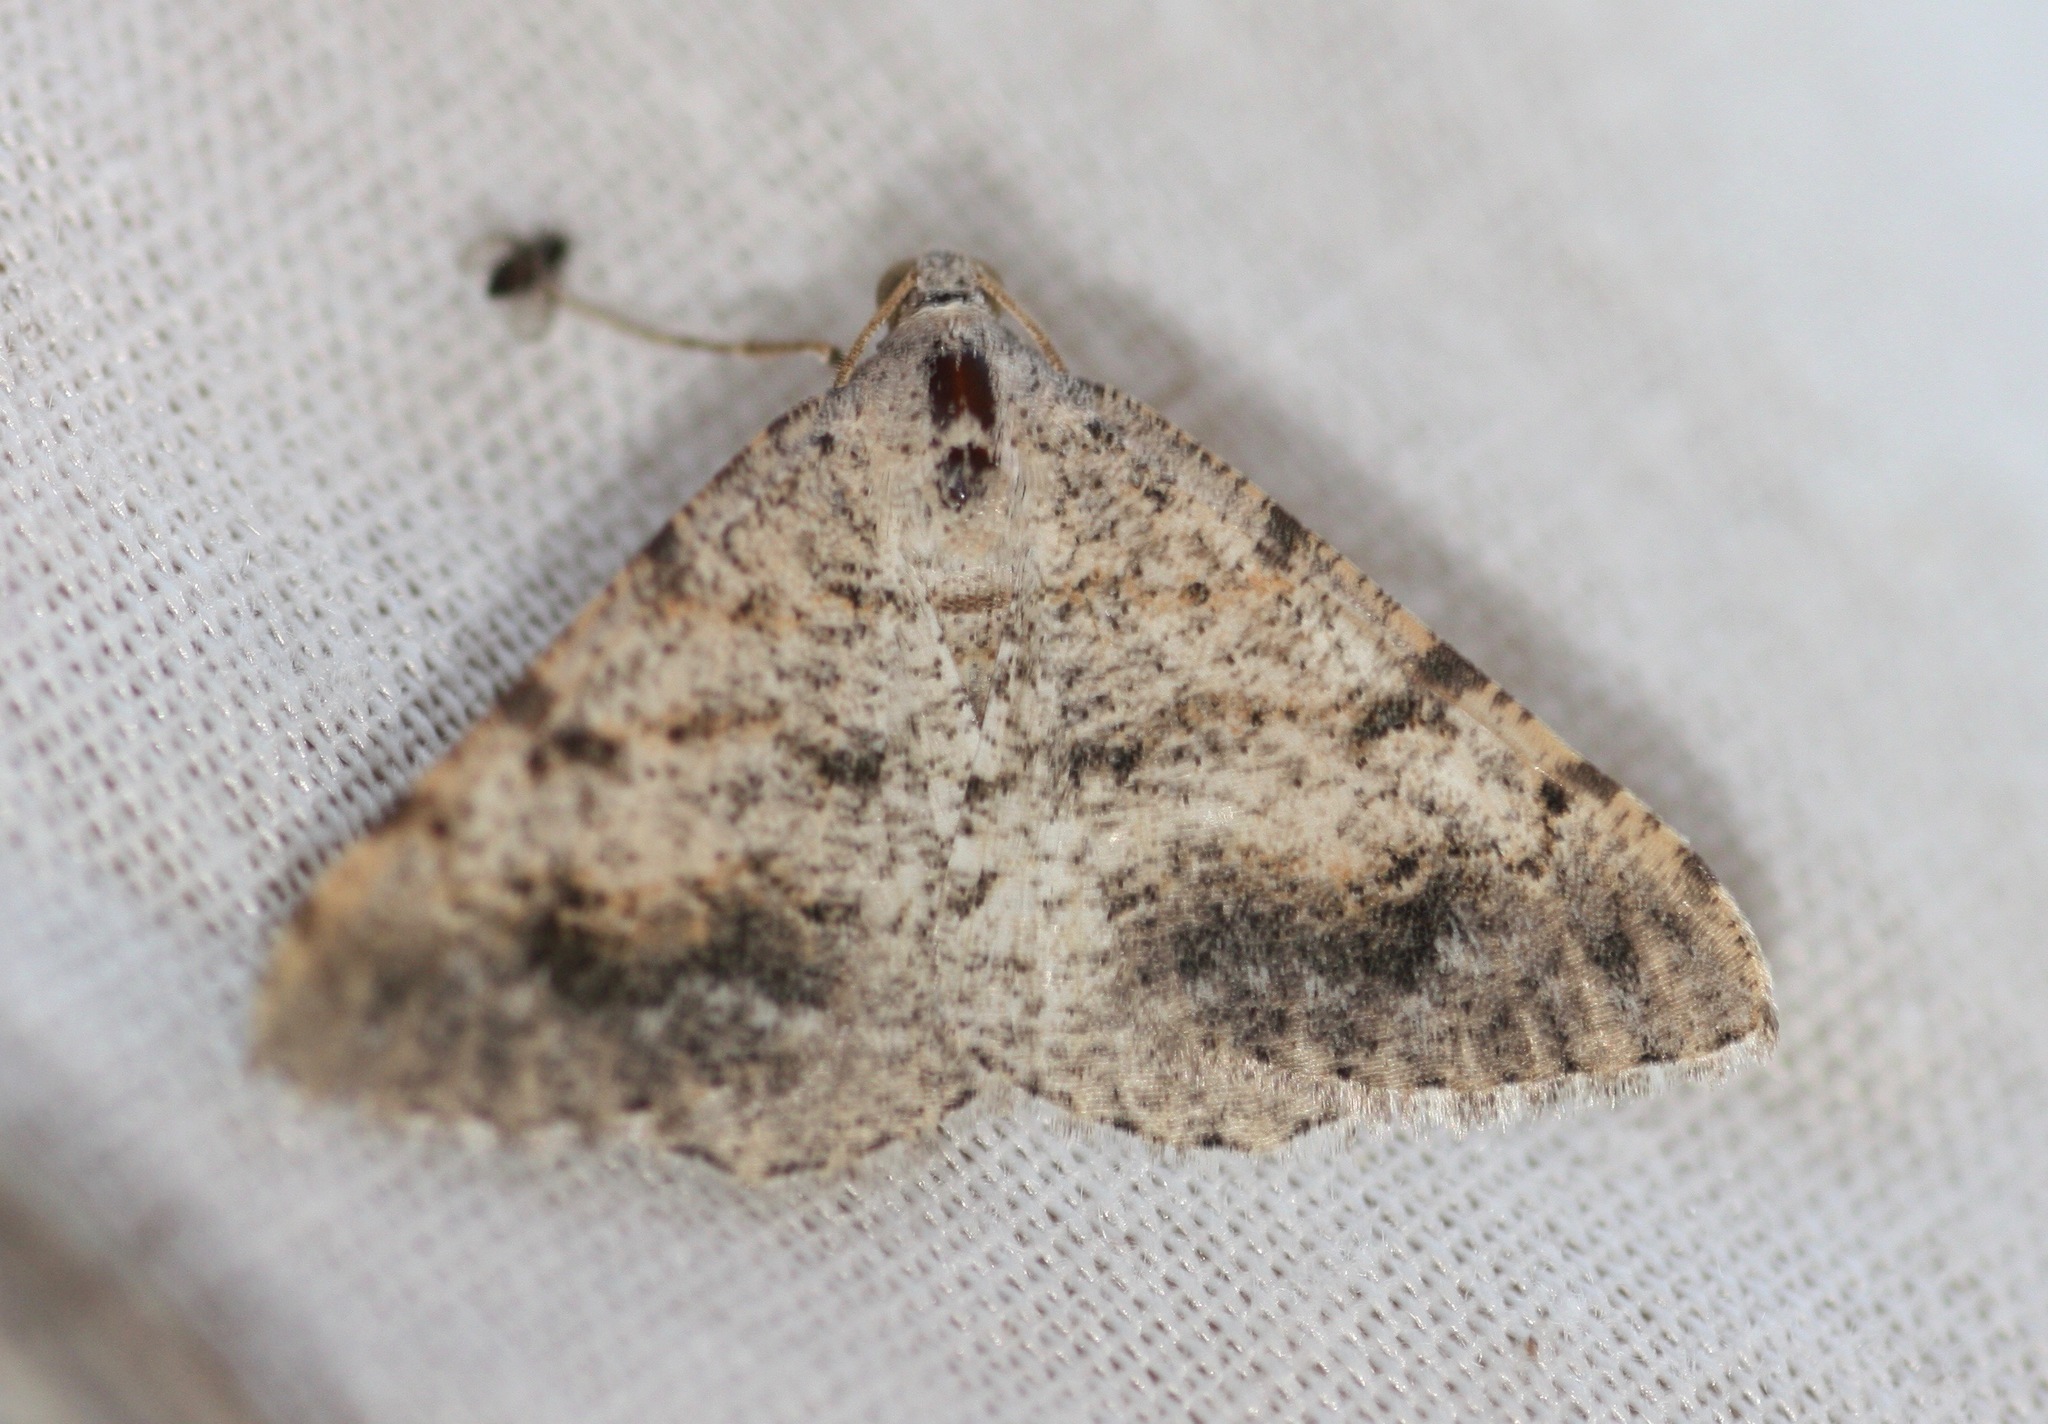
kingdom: Animalia
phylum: Arthropoda
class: Insecta
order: Lepidoptera
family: Geometridae
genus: Digrammia
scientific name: Digrammia colorata
